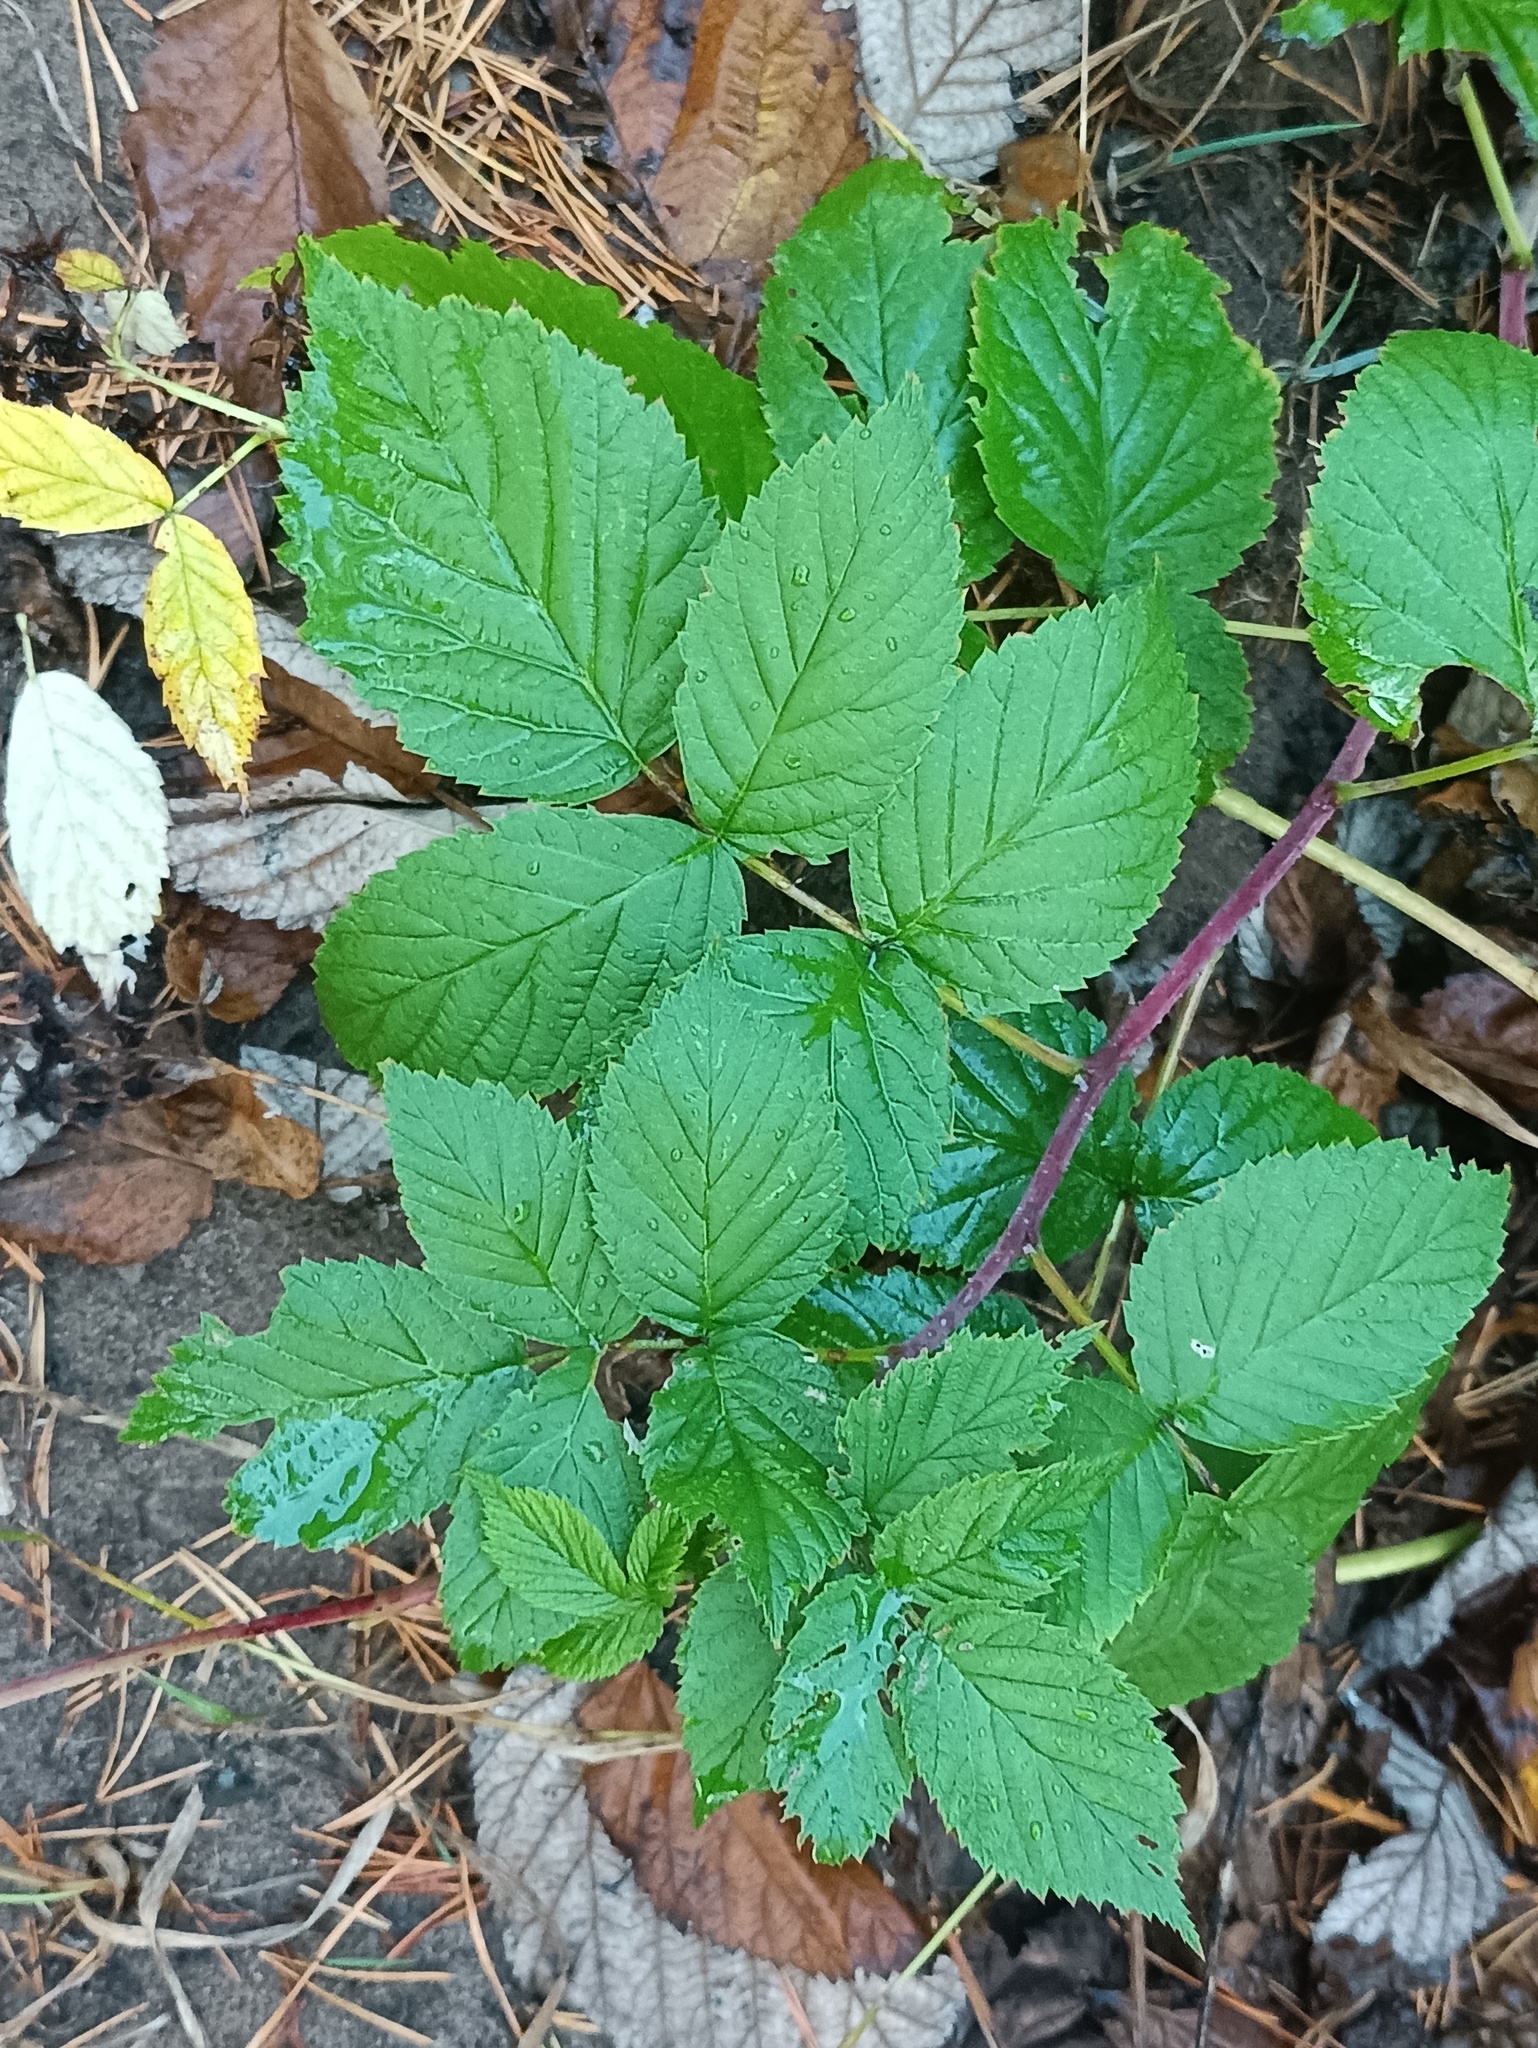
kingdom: Plantae
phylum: Tracheophyta
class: Magnoliopsida
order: Rosales
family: Rosaceae
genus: Rubus
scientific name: Rubus idaeus
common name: Raspberry
